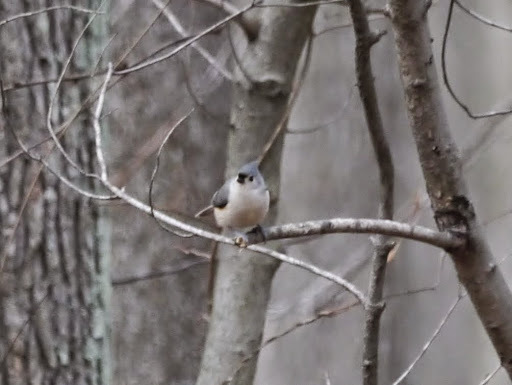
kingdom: Animalia
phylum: Chordata
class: Aves
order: Passeriformes
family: Paridae
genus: Baeolophus
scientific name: Baeolophus bicolor
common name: Tufted titmouse
